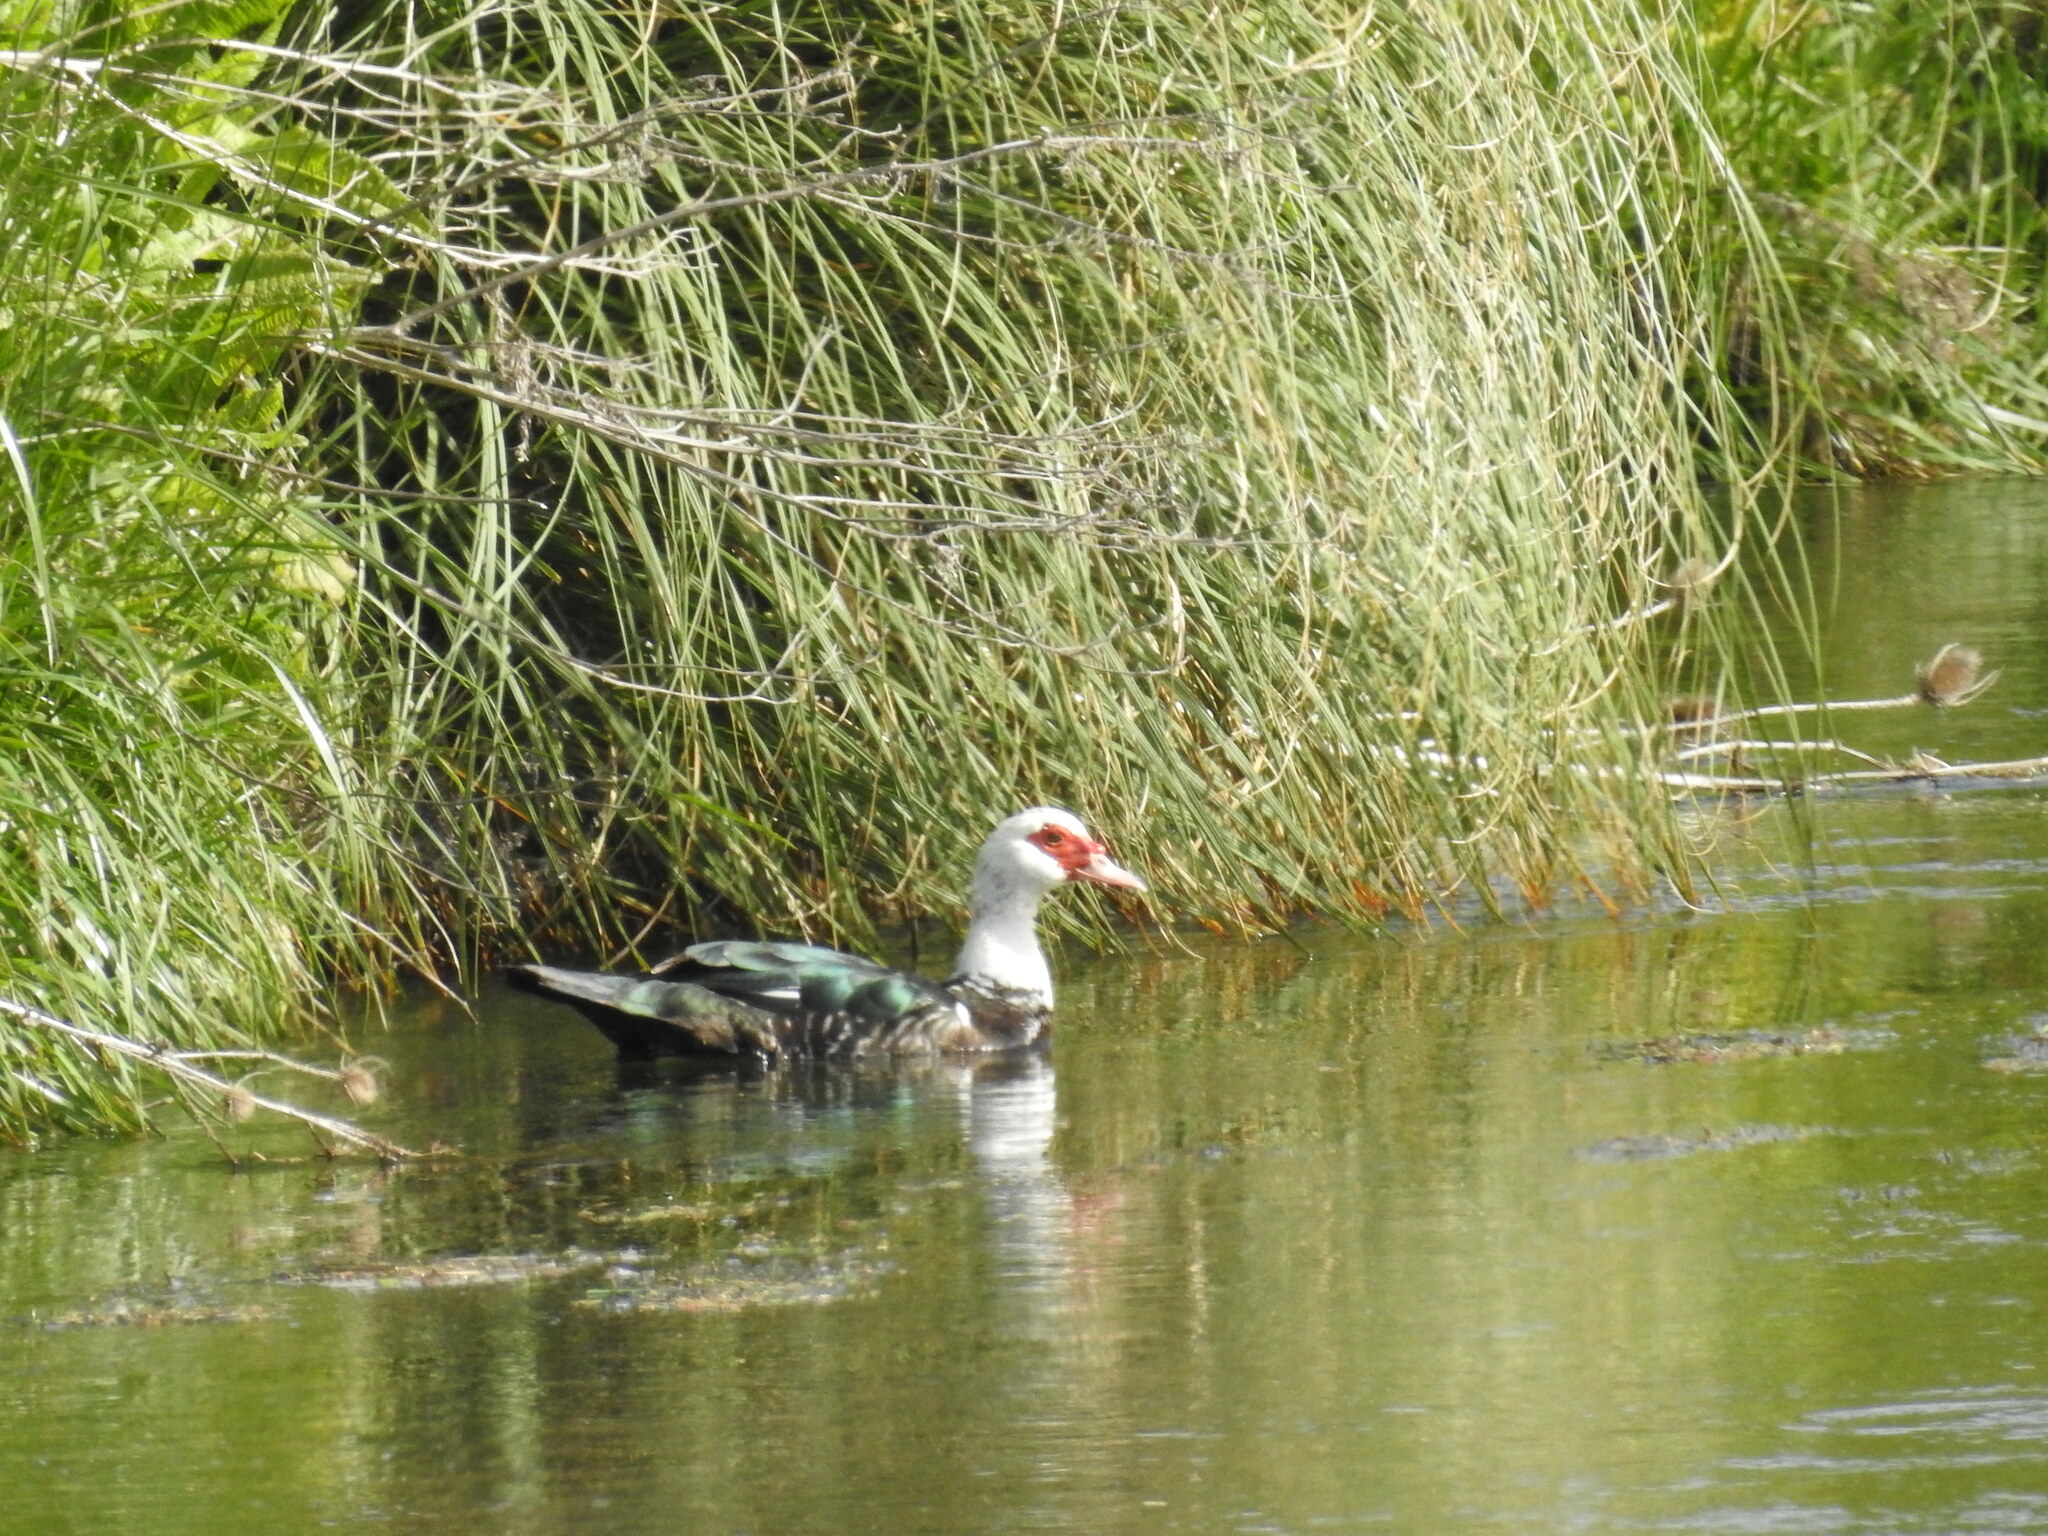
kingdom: Animalia
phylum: Chordata
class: Aves
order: Anseriformes
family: Anatidae
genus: Cairina
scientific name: Cairina moschata
